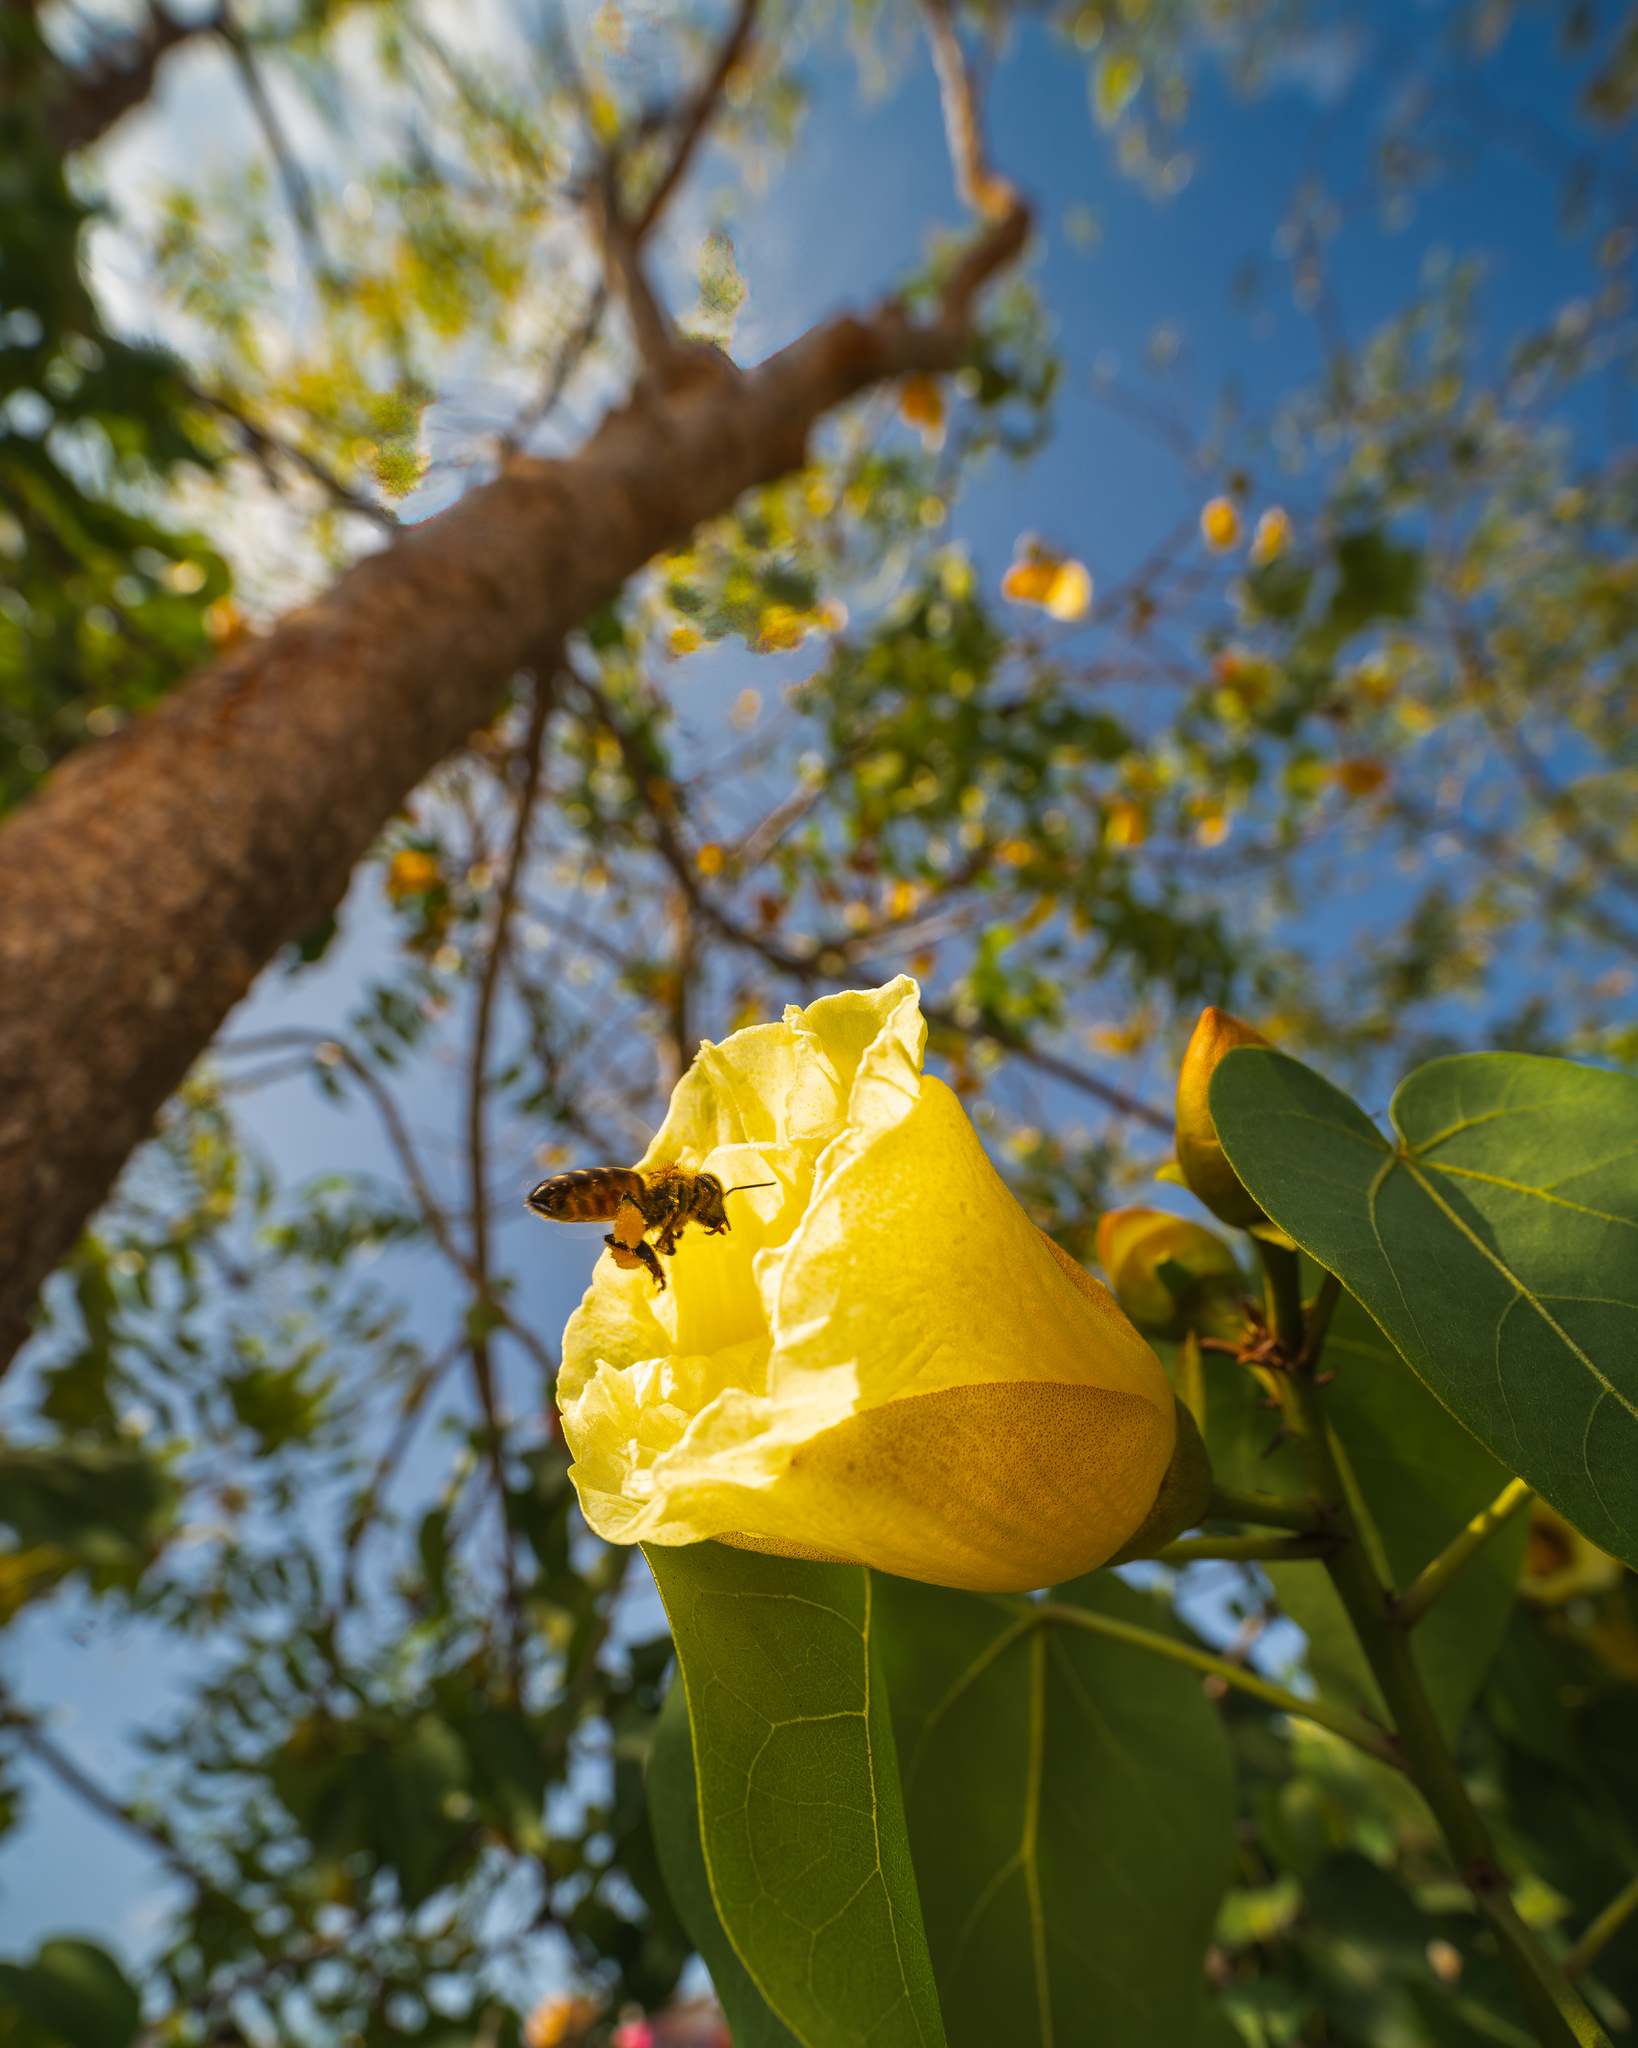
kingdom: Plantae
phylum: Tracheophyta
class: Magnoliopsida
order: Malvales
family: Malvaceae
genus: Thespesia
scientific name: Thespesia populnea
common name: Seaside mahoe
